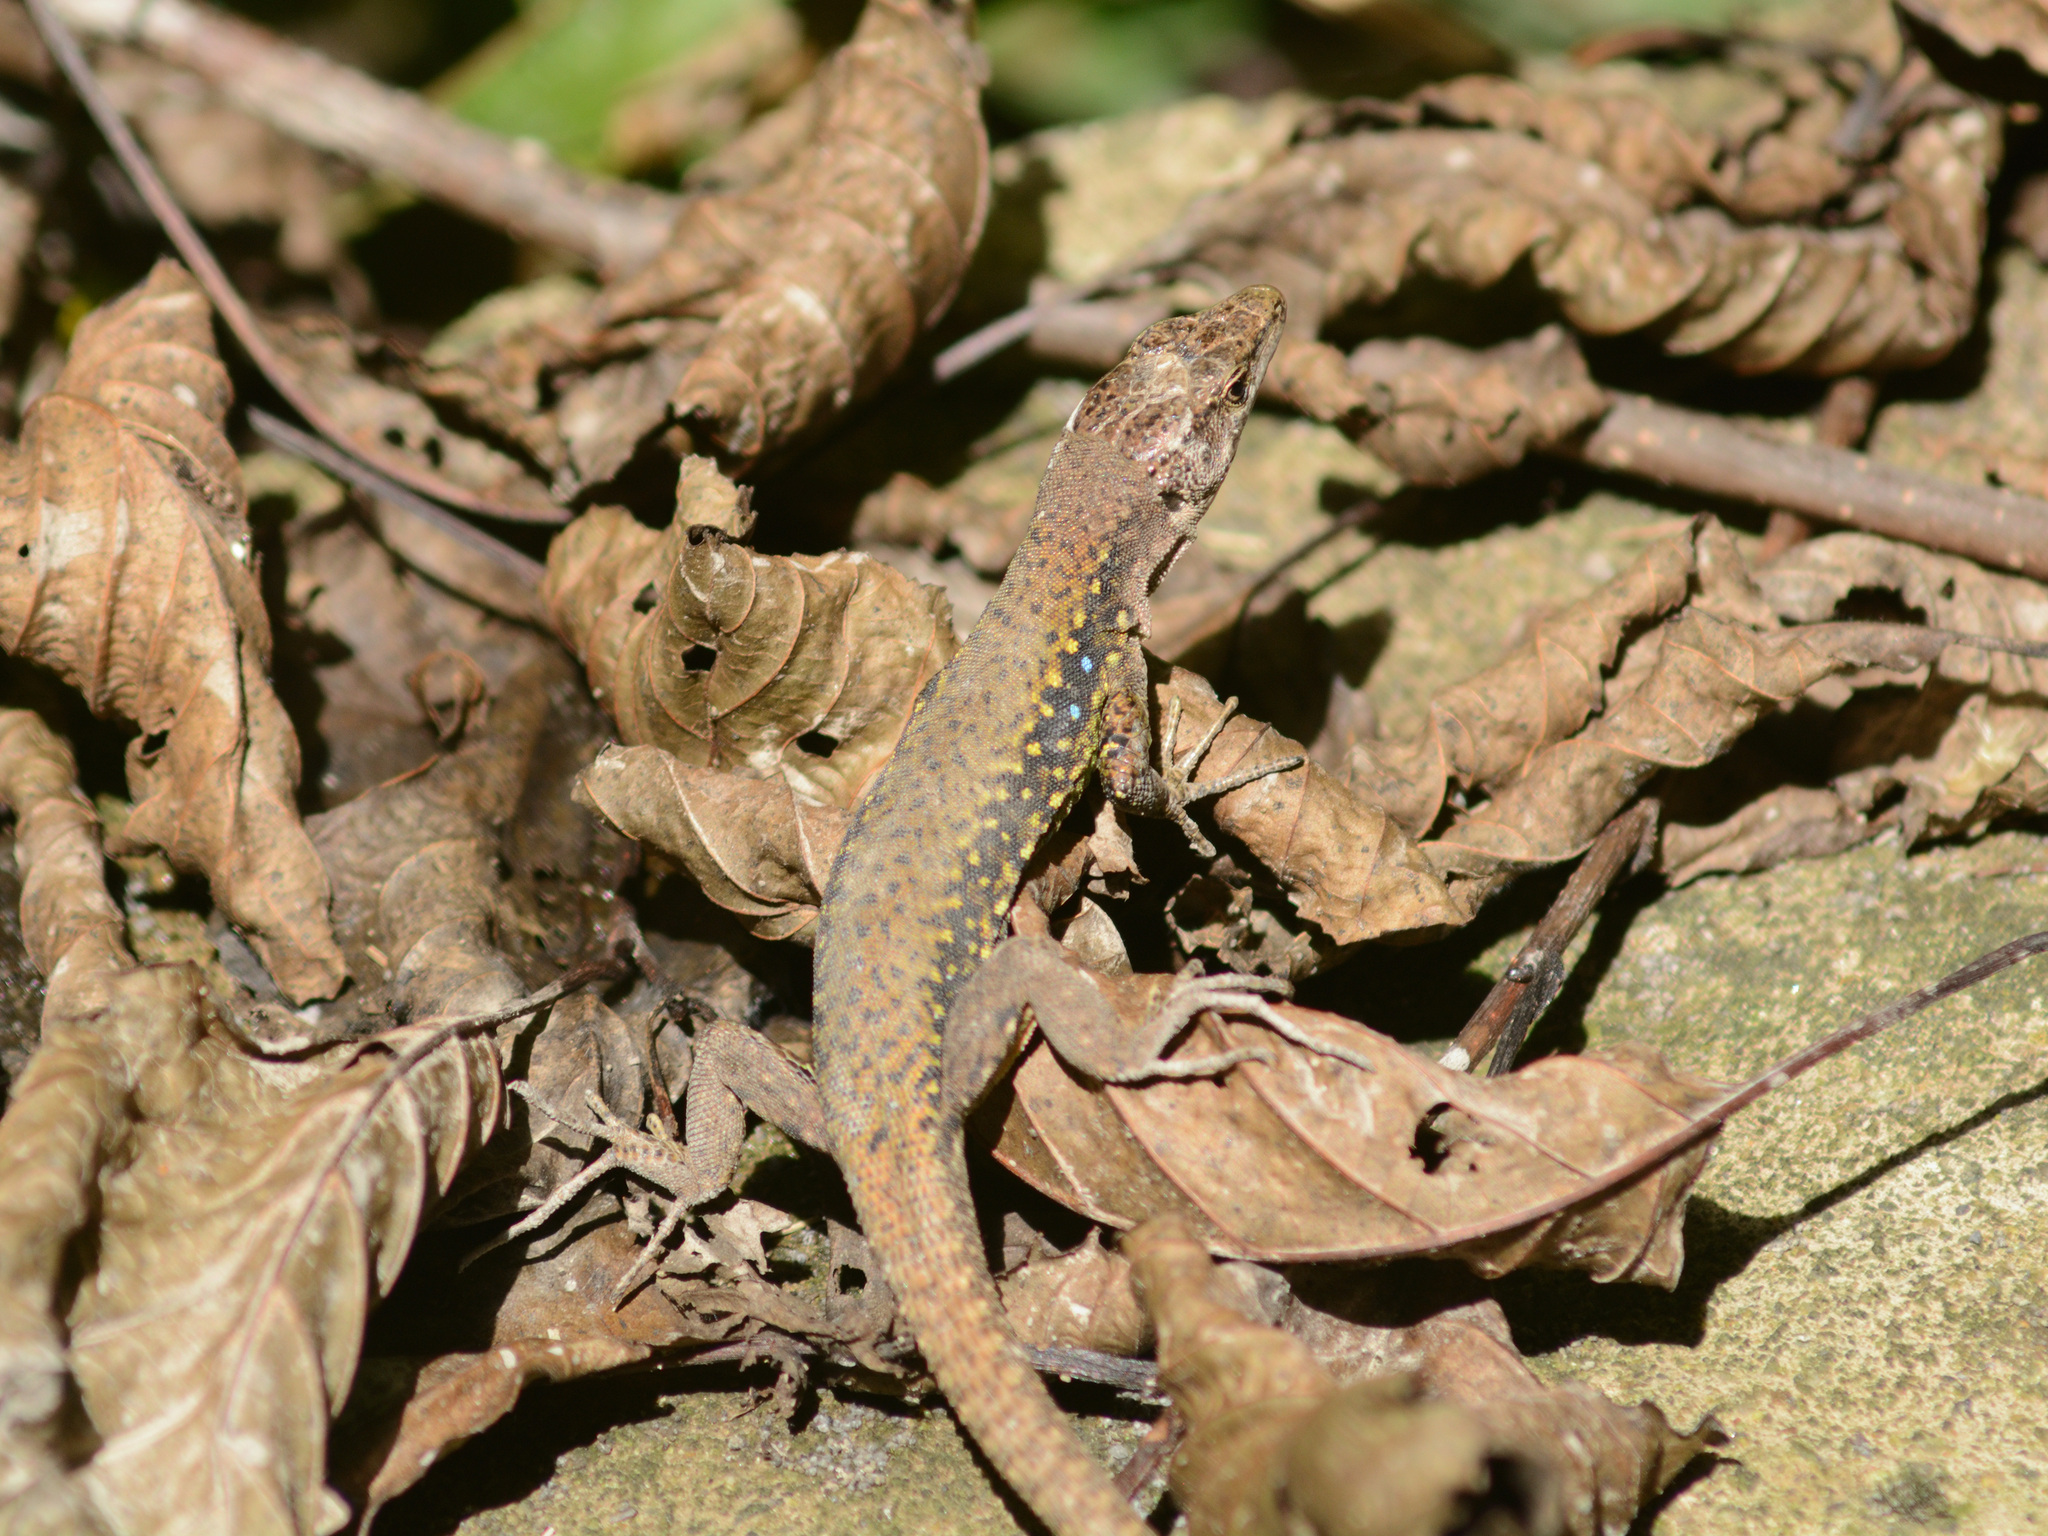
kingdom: Animalia
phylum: Chordata
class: Squamata
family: Lacertidae
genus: Darevskia
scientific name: Darevskia brauneri
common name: Brauner's rock lizard
